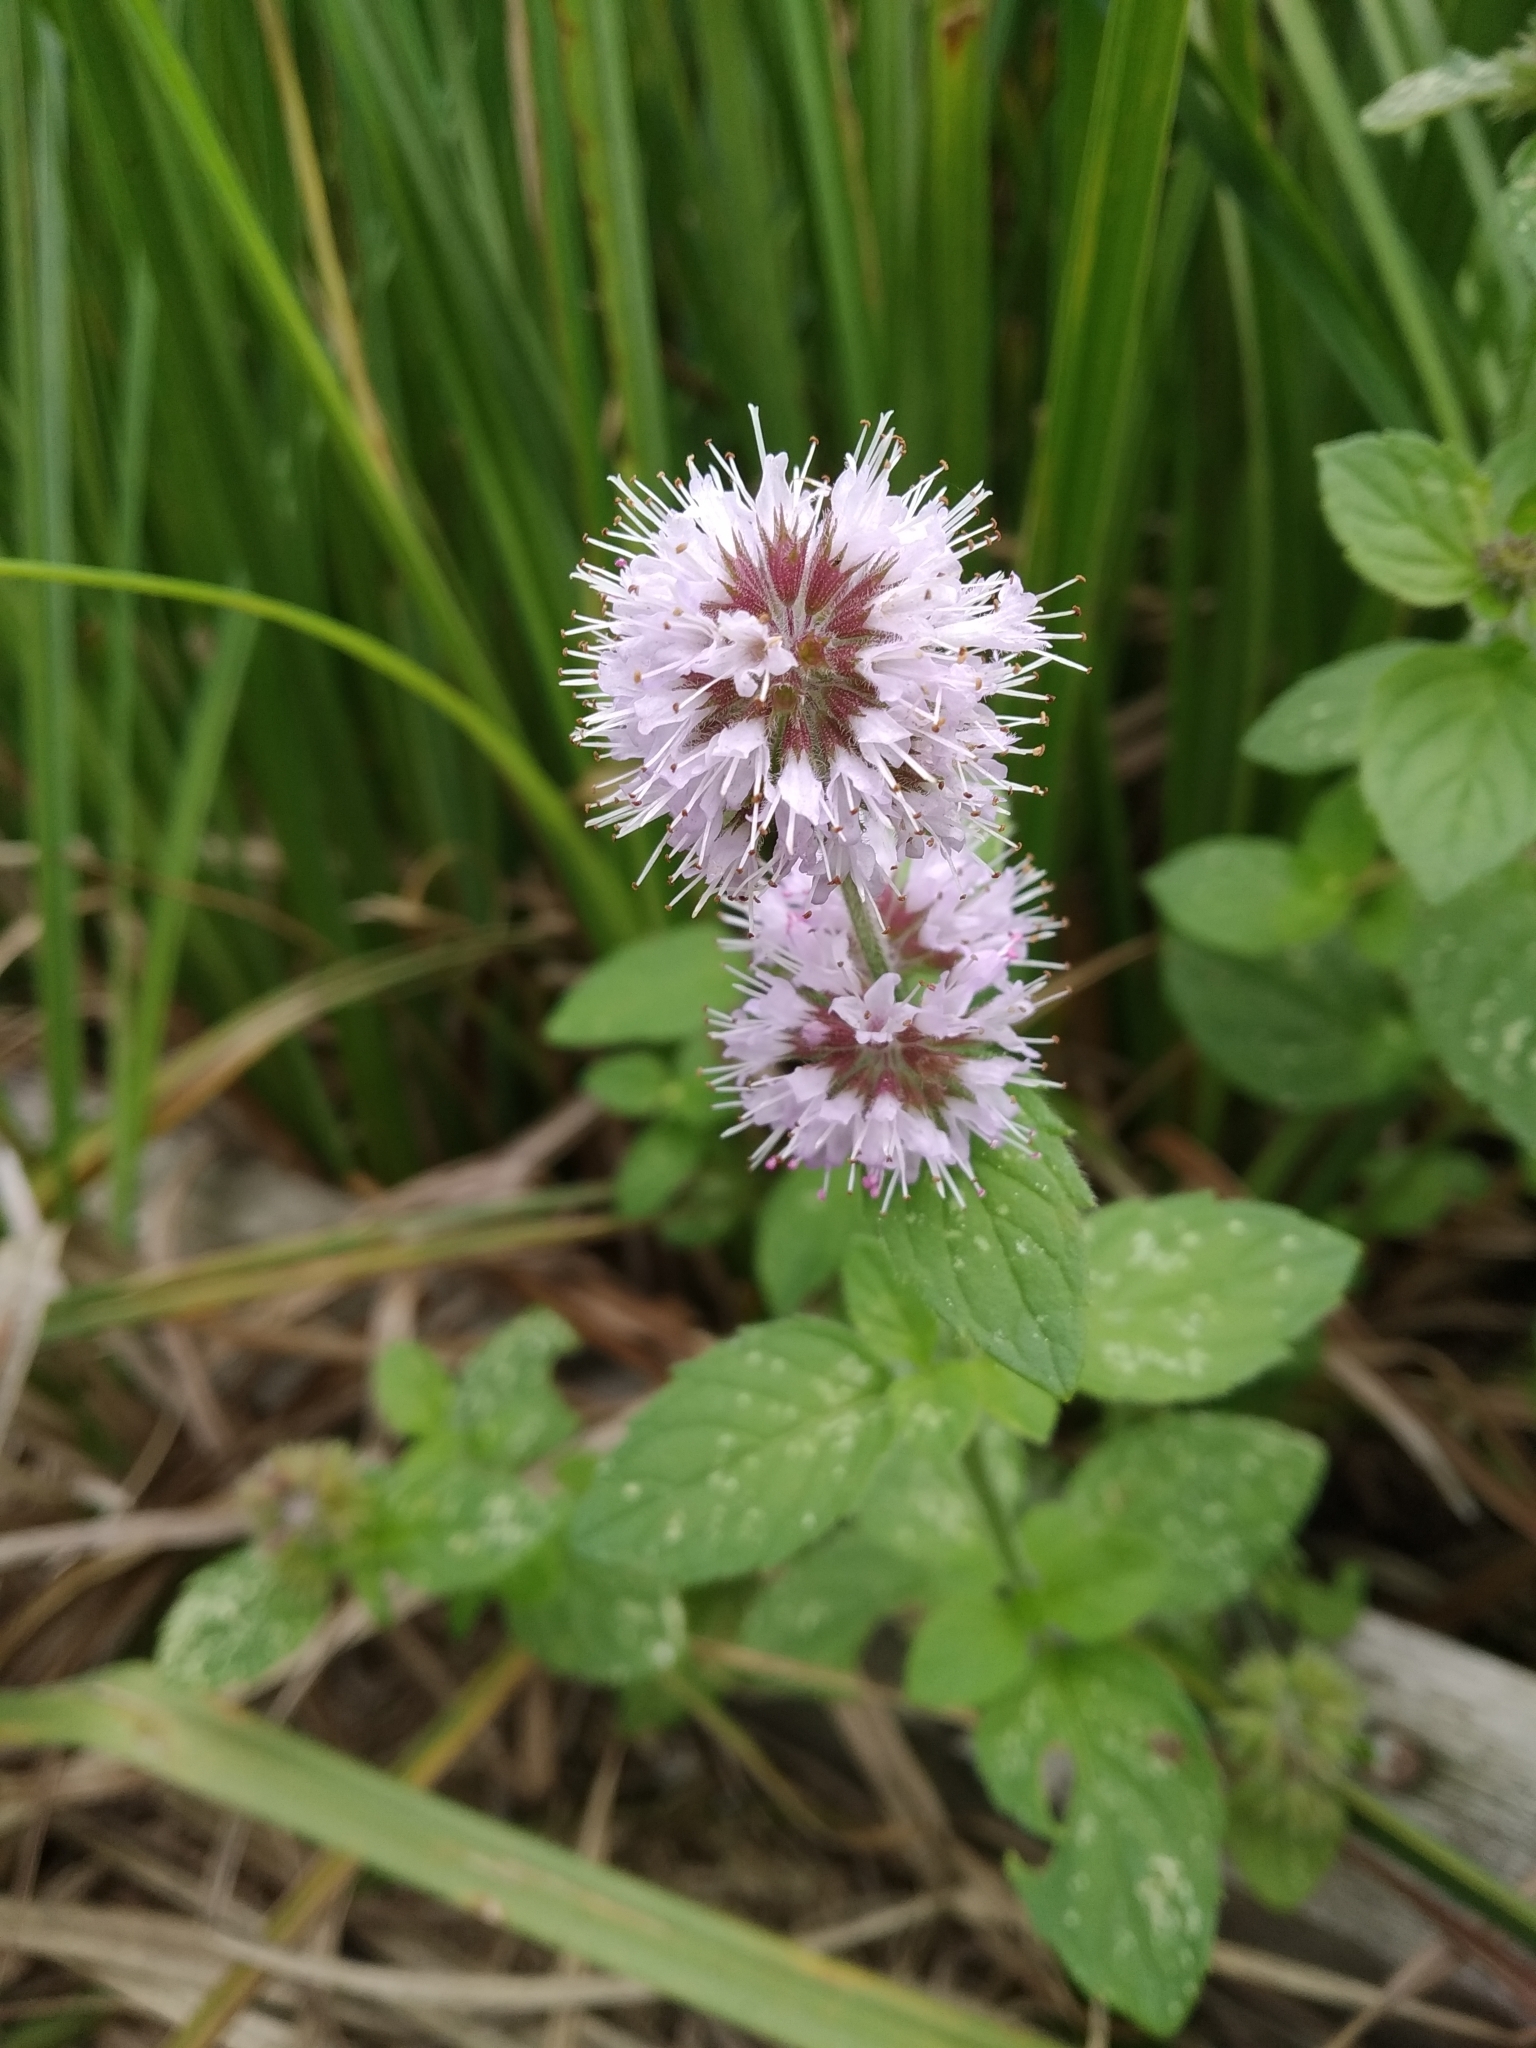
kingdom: Plantae
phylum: Tracheophyta
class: Magnoliopsida
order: Lamiales
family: Lamiaceae
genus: Mentha
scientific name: Mentha aquatica
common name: Water mint
